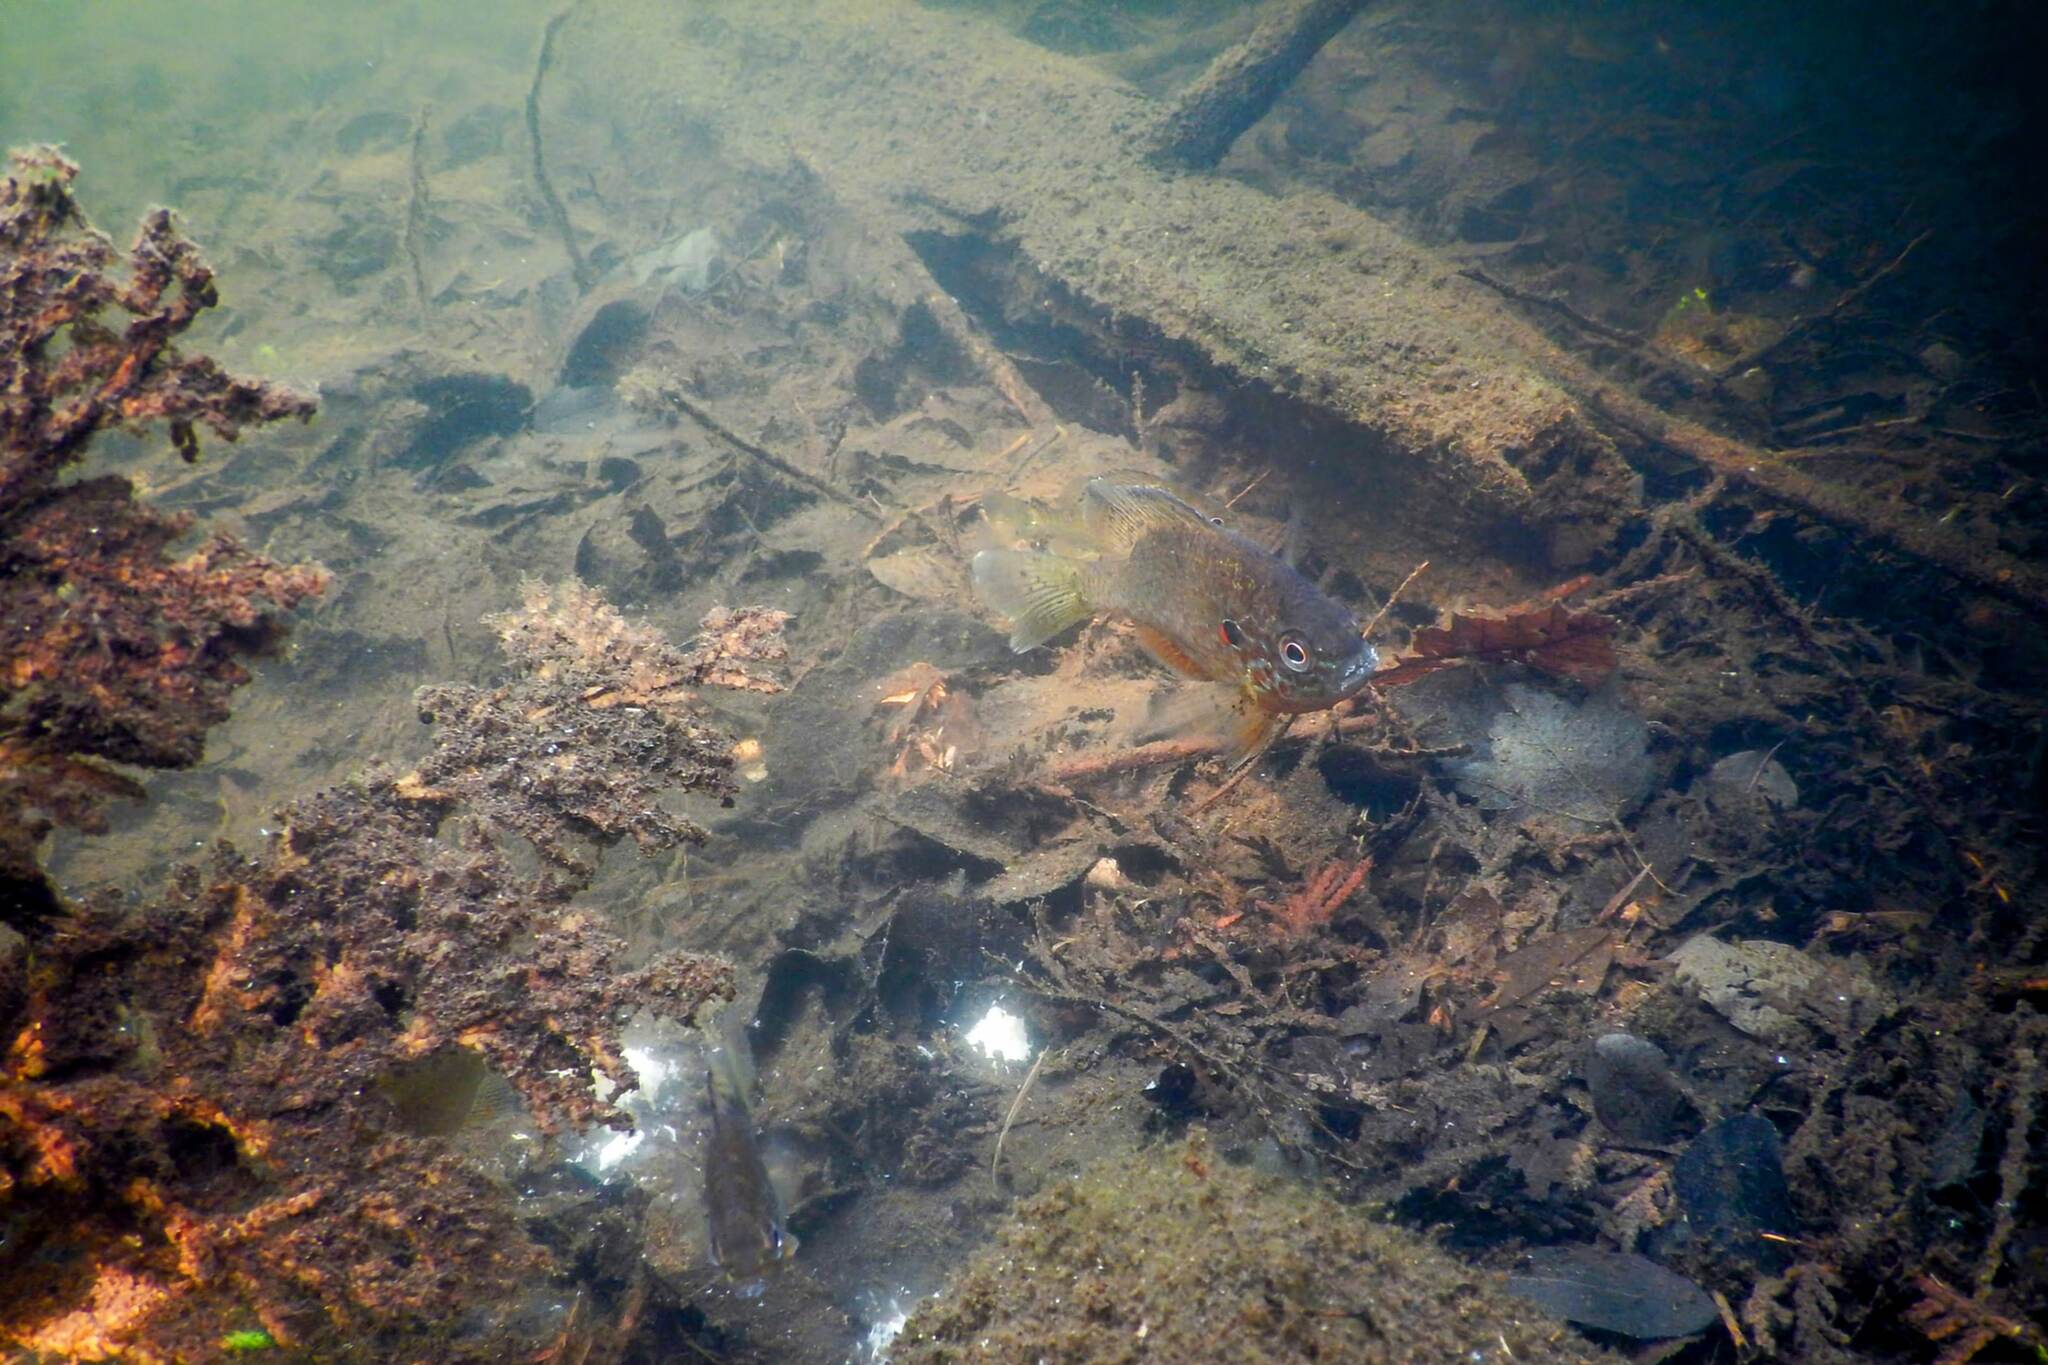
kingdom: Animalia
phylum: Chordata
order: Perciformes
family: Centrarchidae
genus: Lepomis
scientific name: Lepomis gibbosus
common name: Pumpkinseed
